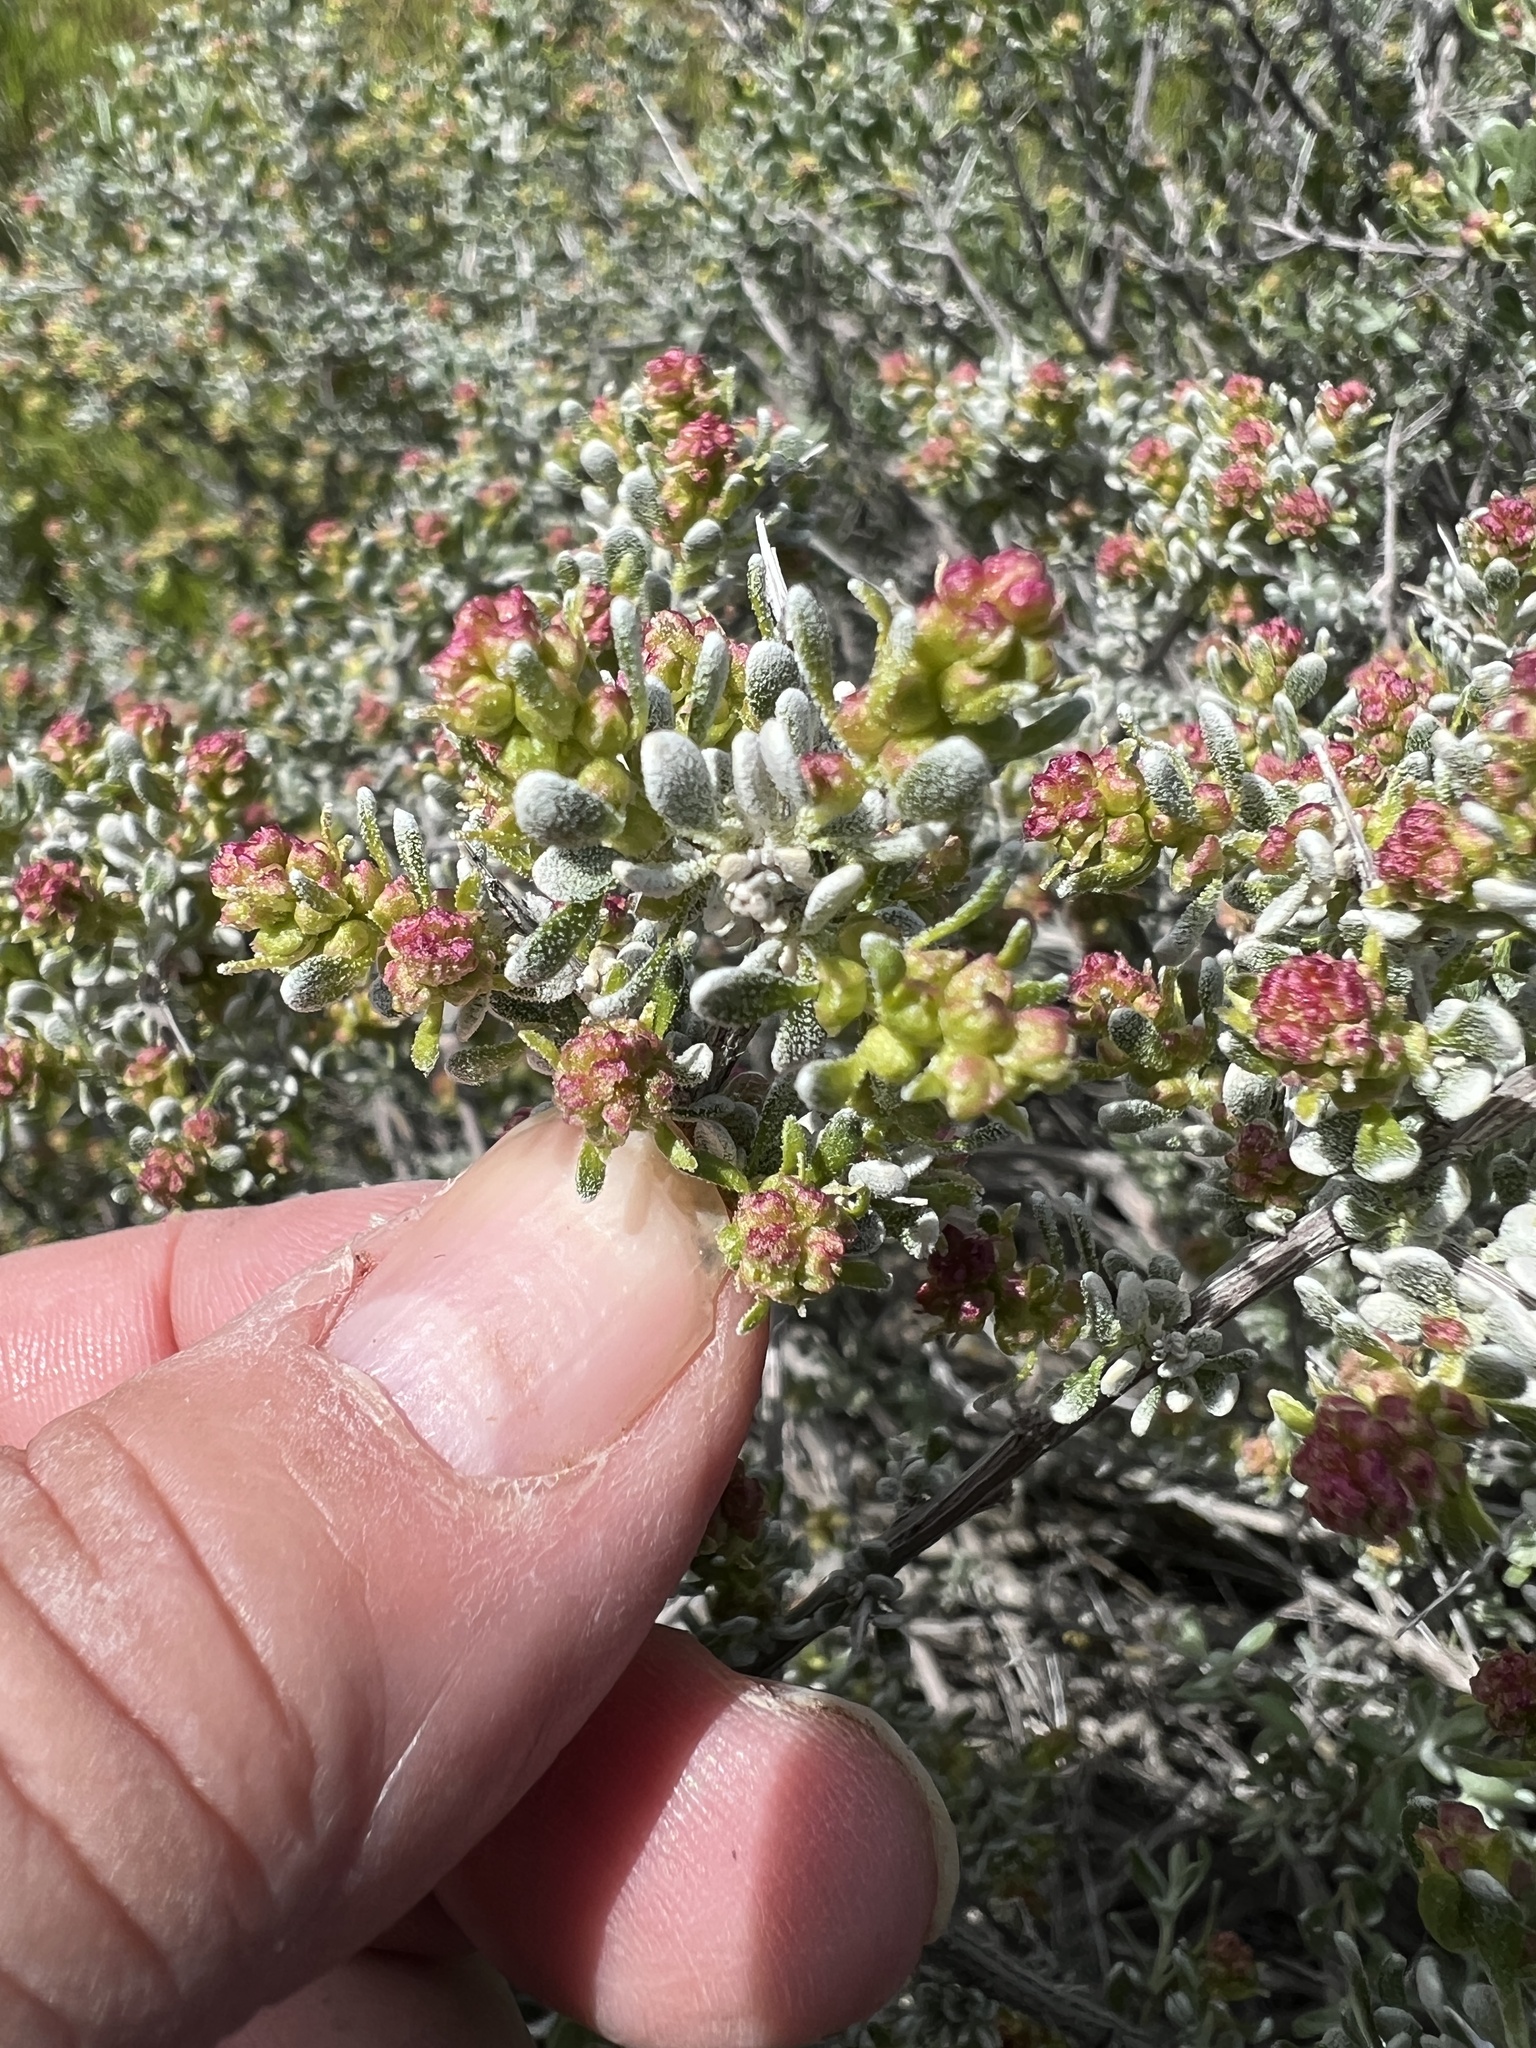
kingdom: Plantae
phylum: Tracheophyta
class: Magnoliopsida
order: Caryophyllales
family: Amaranthaceae
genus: Grayia
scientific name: Grayia spinosa
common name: Spiny hopsage
